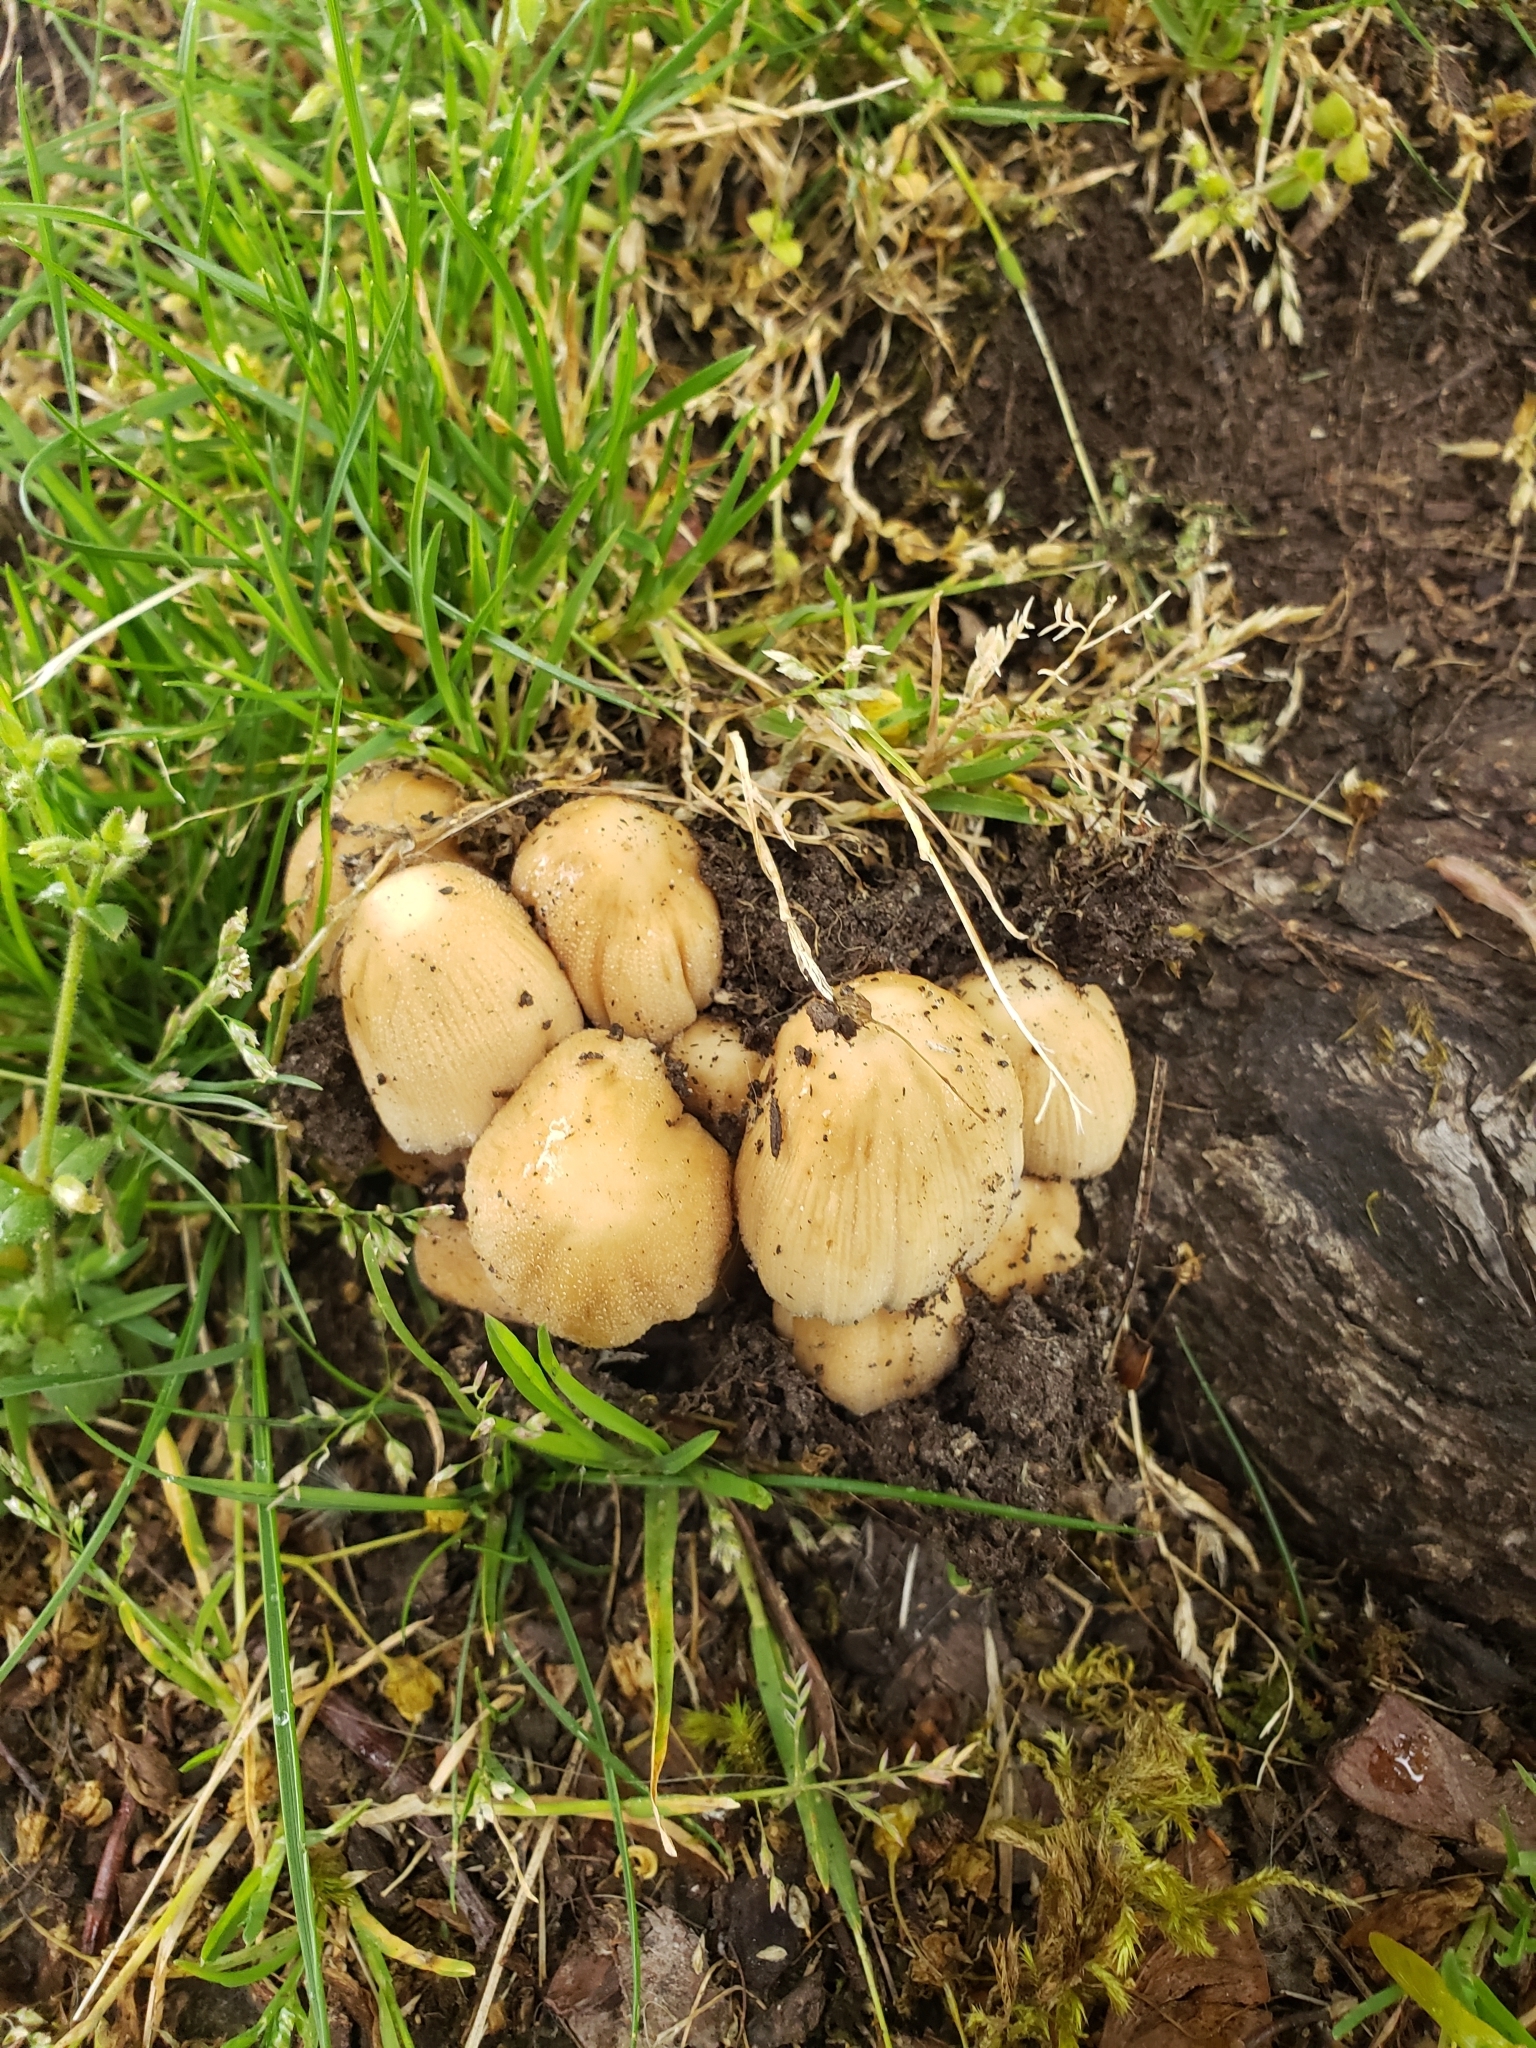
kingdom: Fungi
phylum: Basidiomycota
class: Agaricomycetes
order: Agaricales
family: Psathyrellaceae
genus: Coprinellus
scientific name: Coprinellus micaceus
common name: Glistening ink-cap
